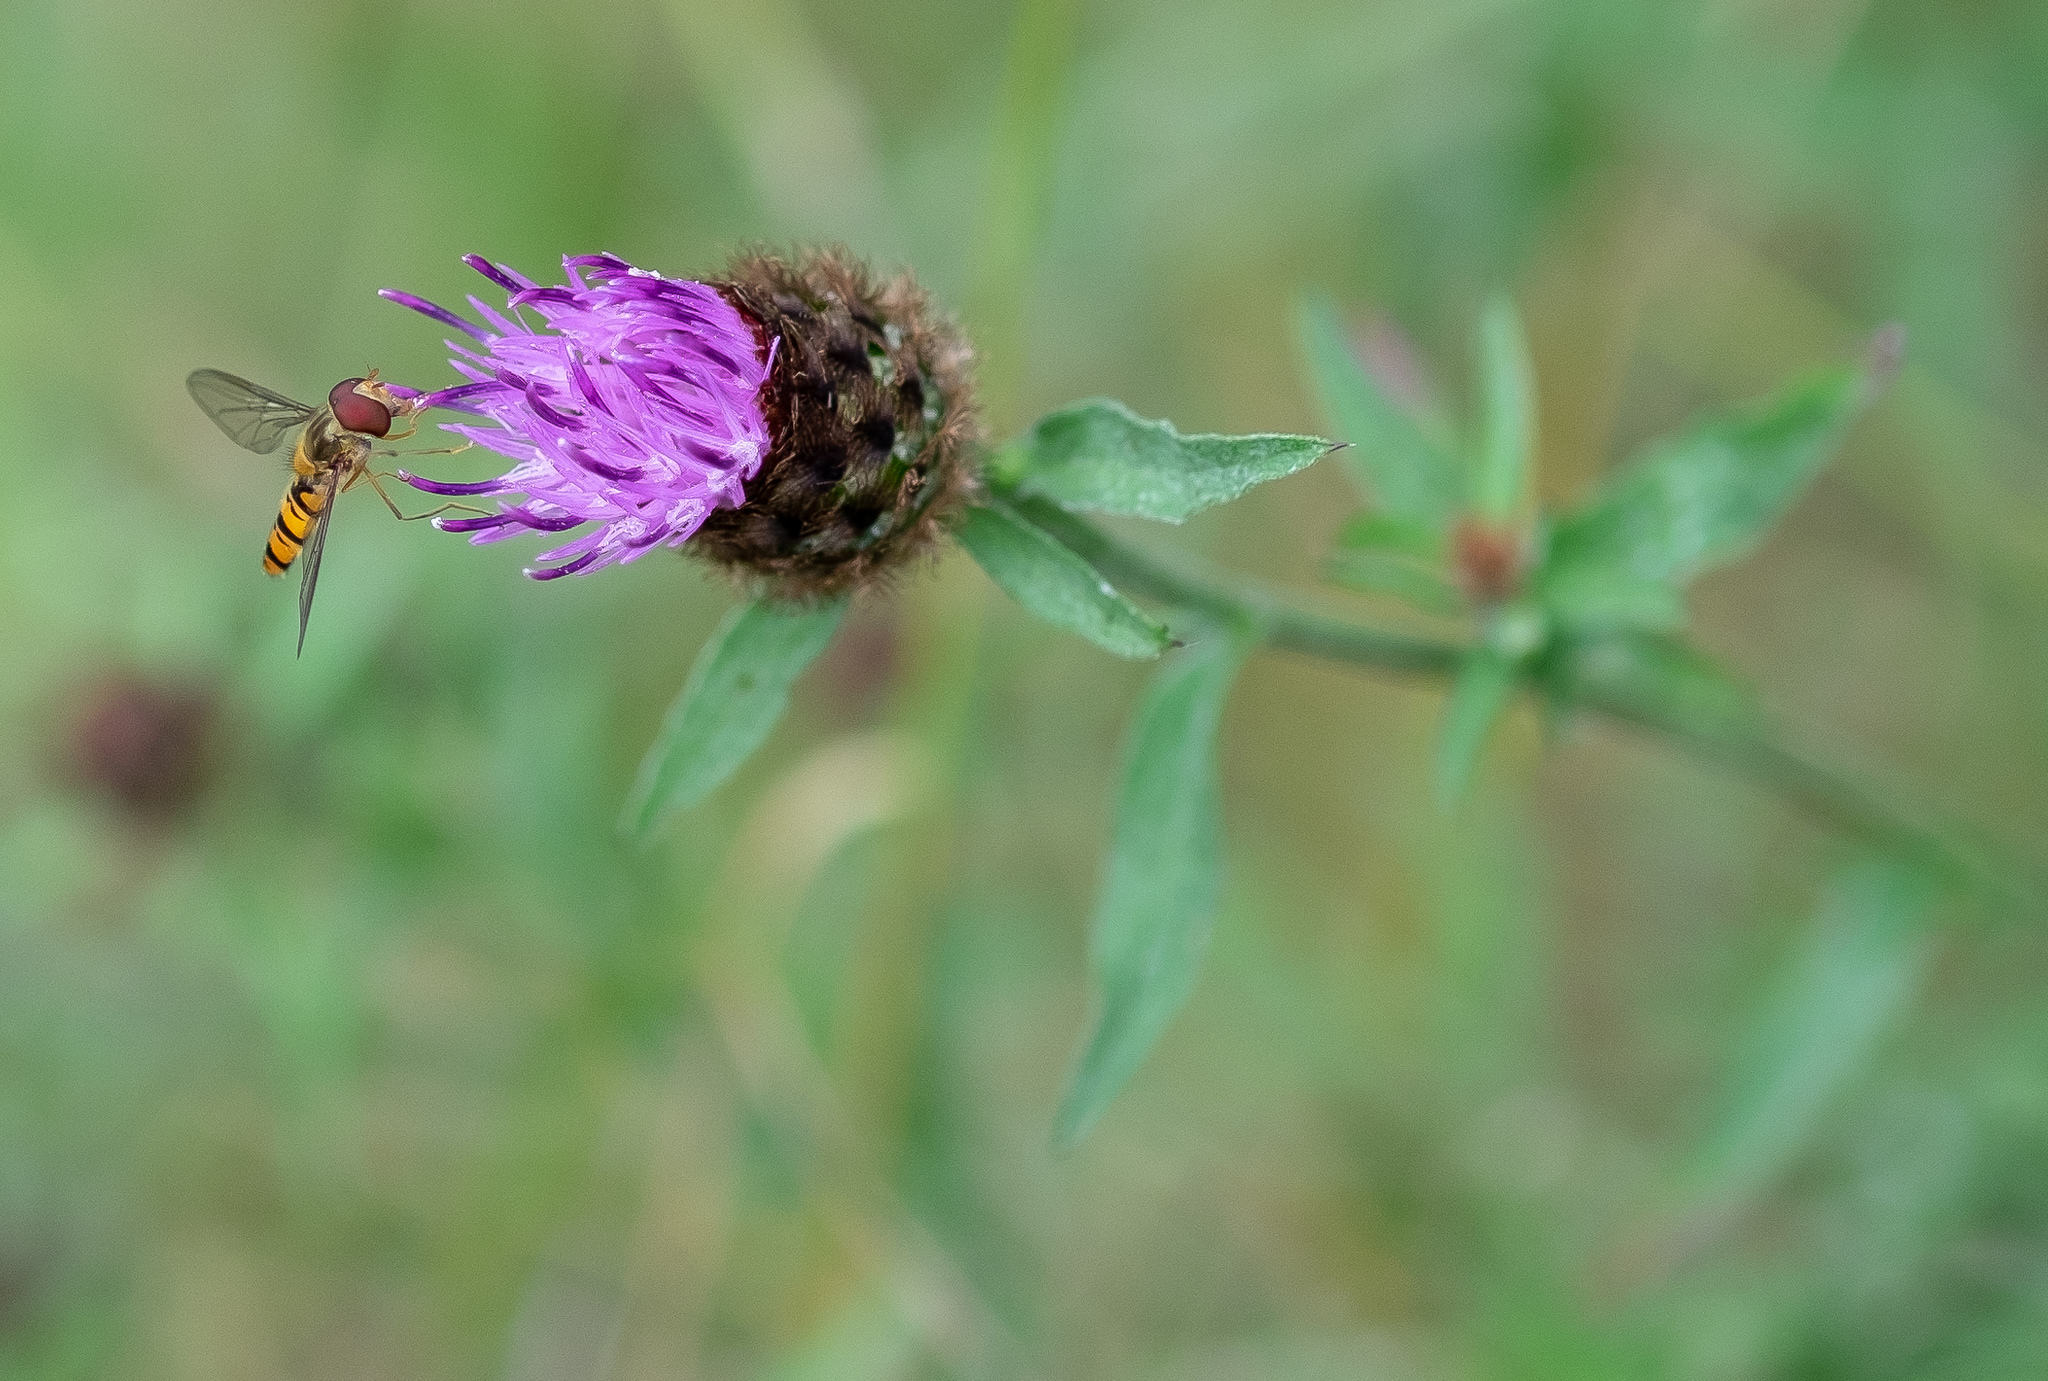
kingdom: Animalia
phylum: Arthropoda
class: Insecta
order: Diptera
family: Syrphidae
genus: Episyrphus
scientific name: Episyrphus balteatus
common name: Marmalade hoverfly
